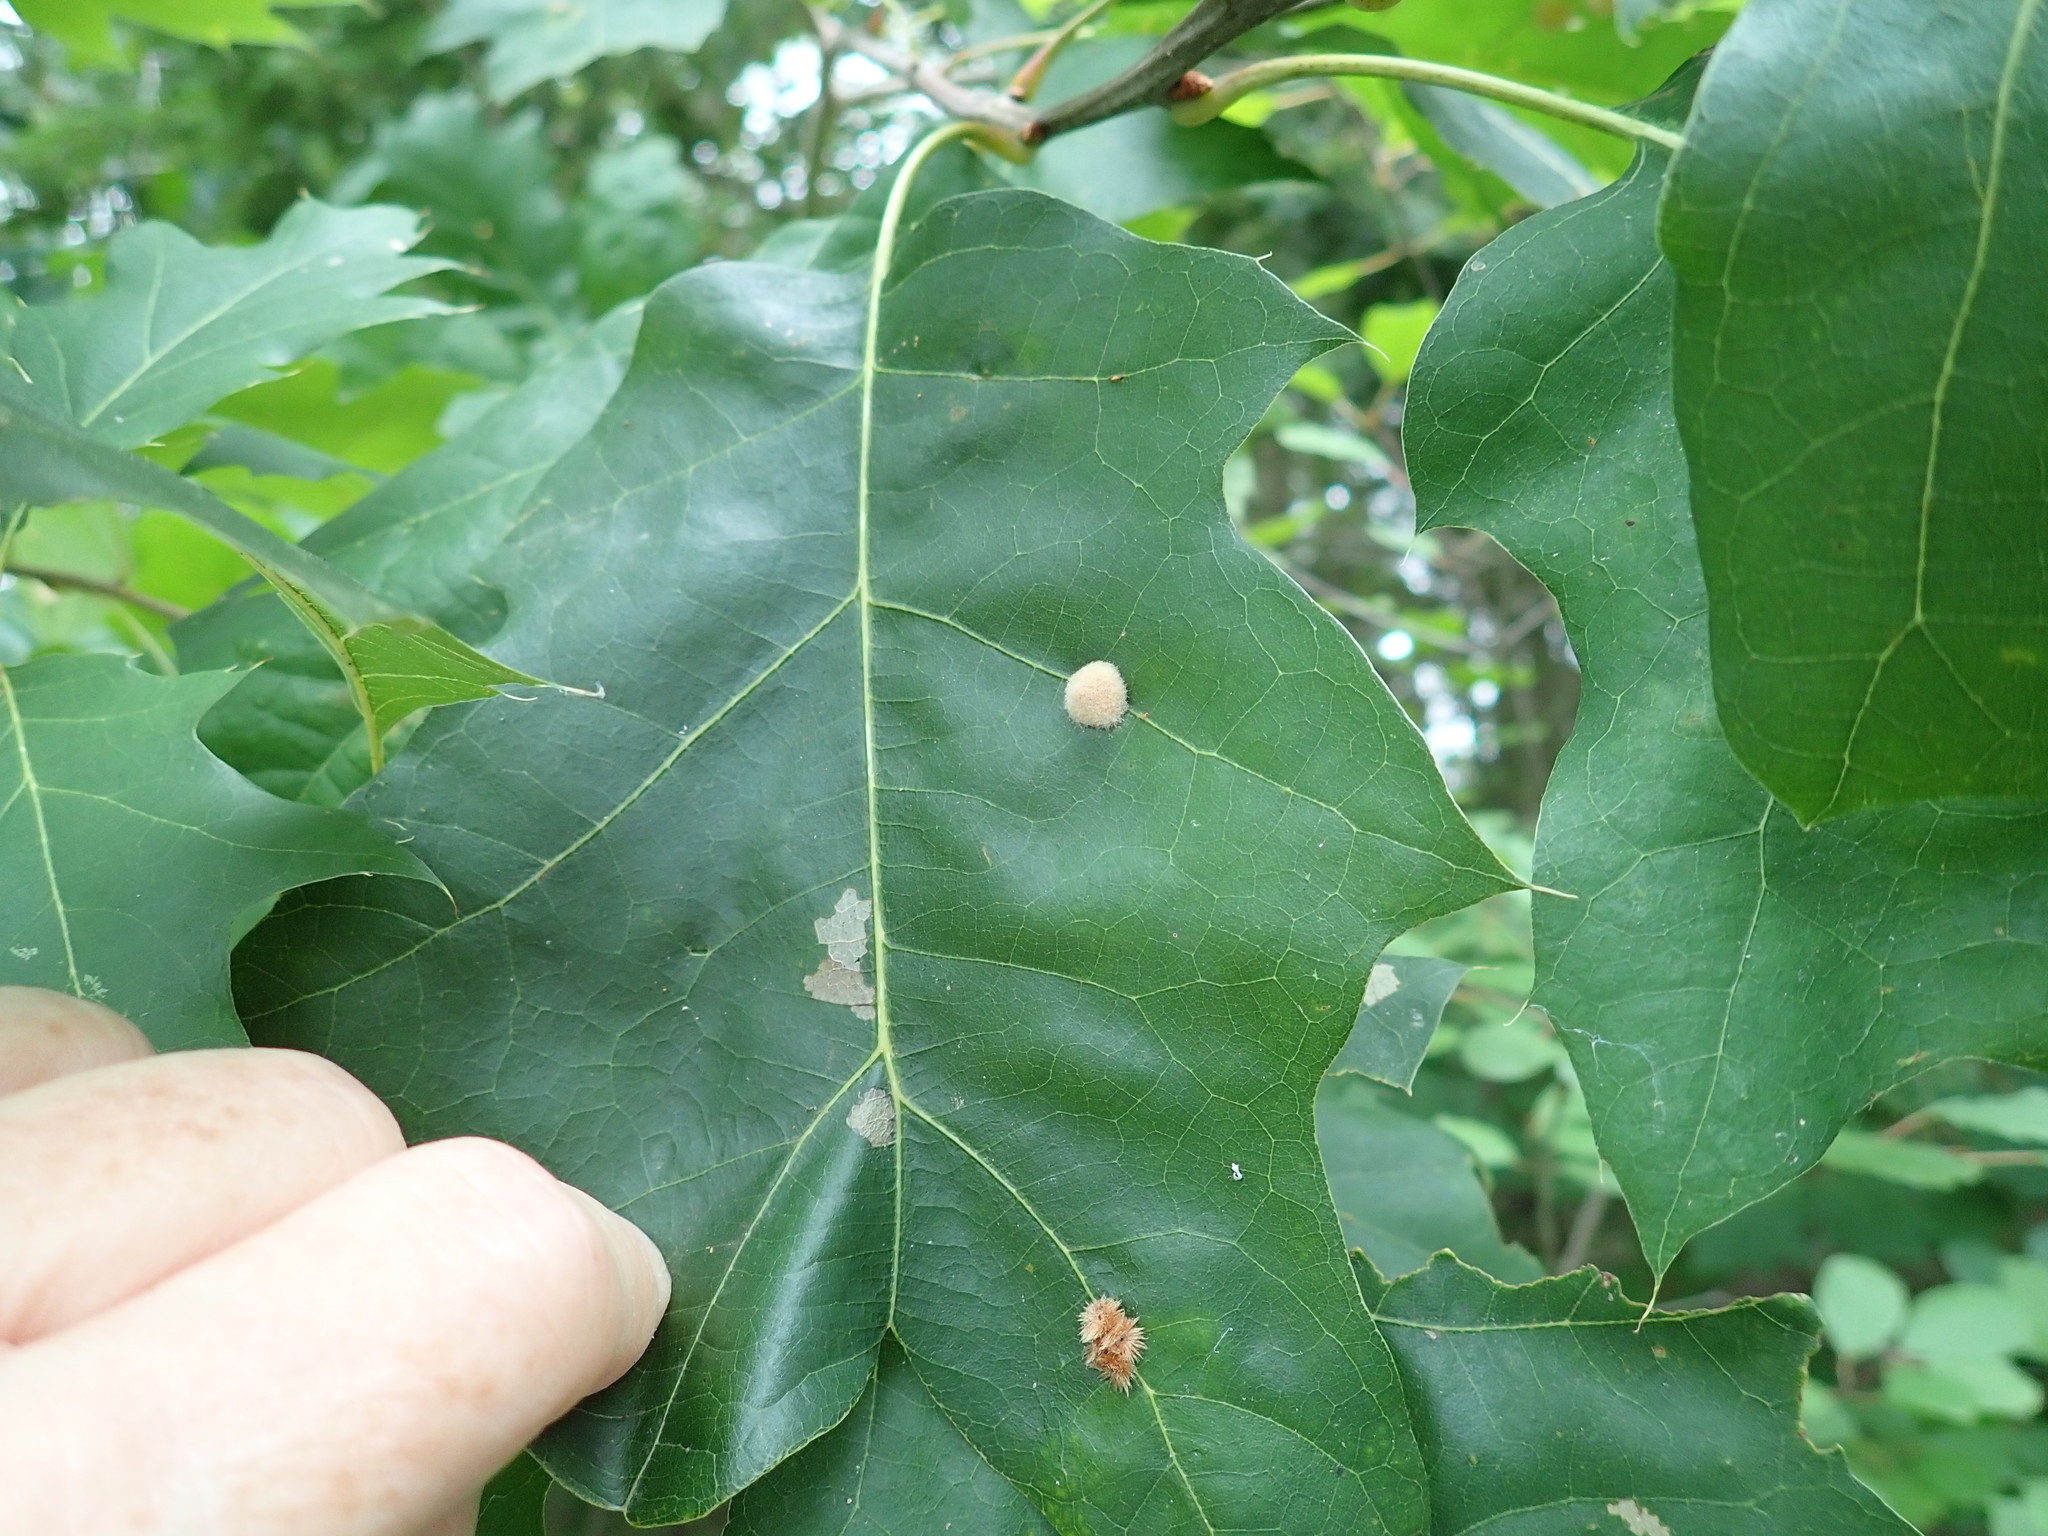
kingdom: Animalia
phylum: Arthropoda
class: Insecta
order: Hymenoptera
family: Cynipidae
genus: Callirhytis
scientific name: Callirhytis
